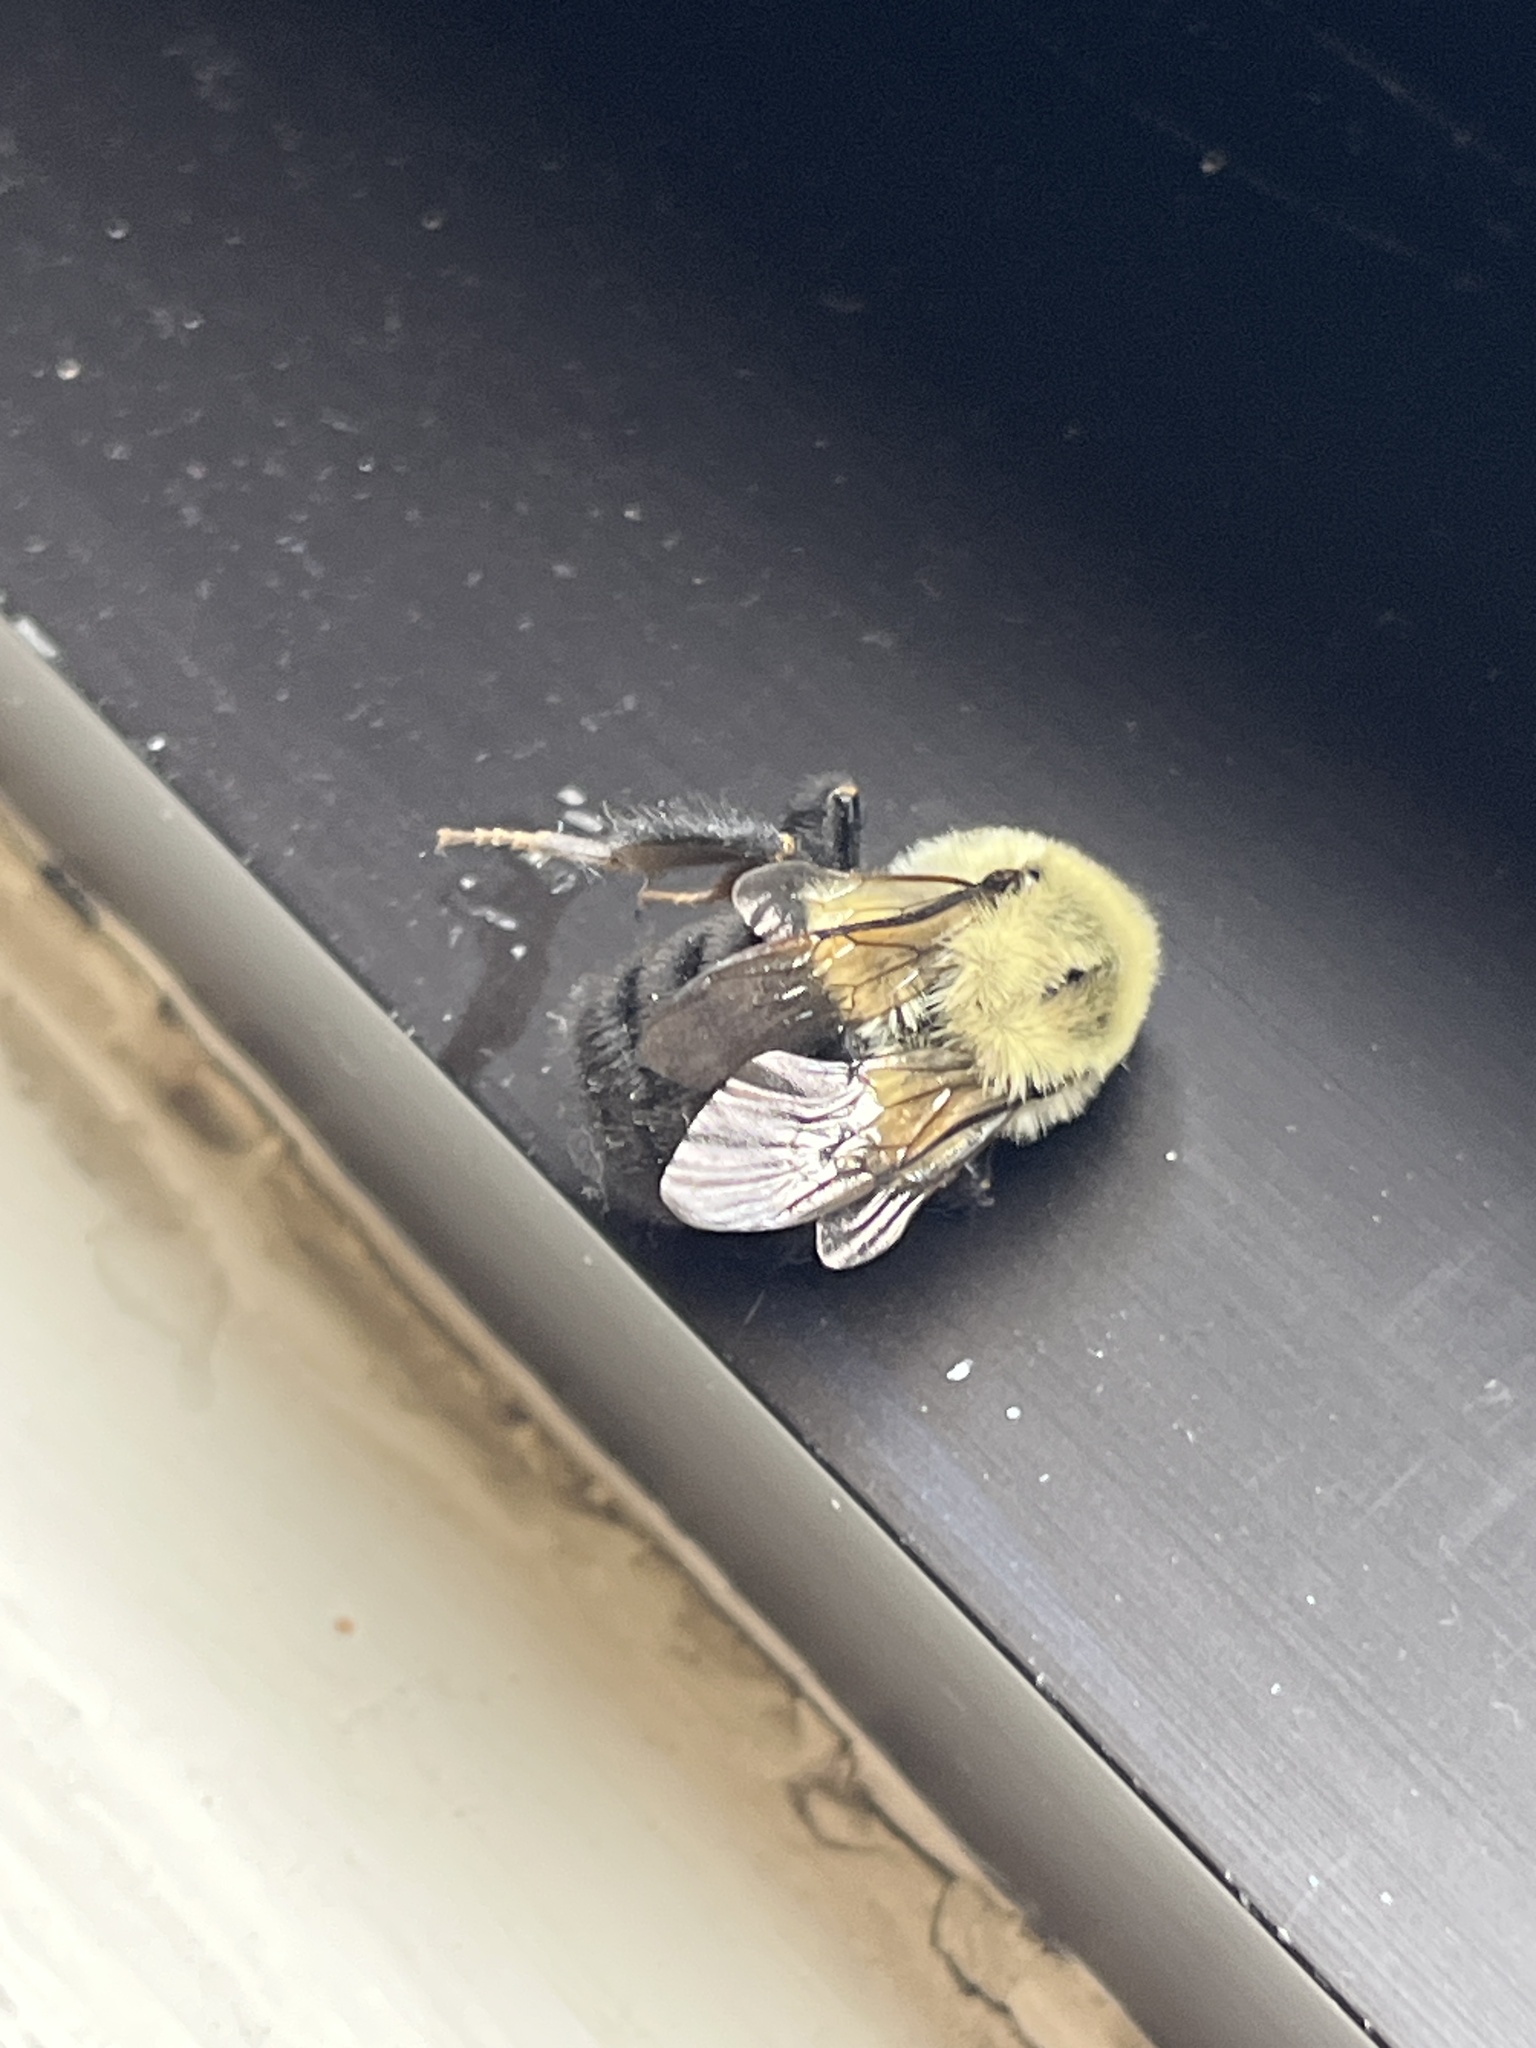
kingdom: Animalia
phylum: Arthropoda
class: Insecta
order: Hymenoptera
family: Apidae
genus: Bombus
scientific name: Bombus impatiens
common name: Common eastern bumble bee
